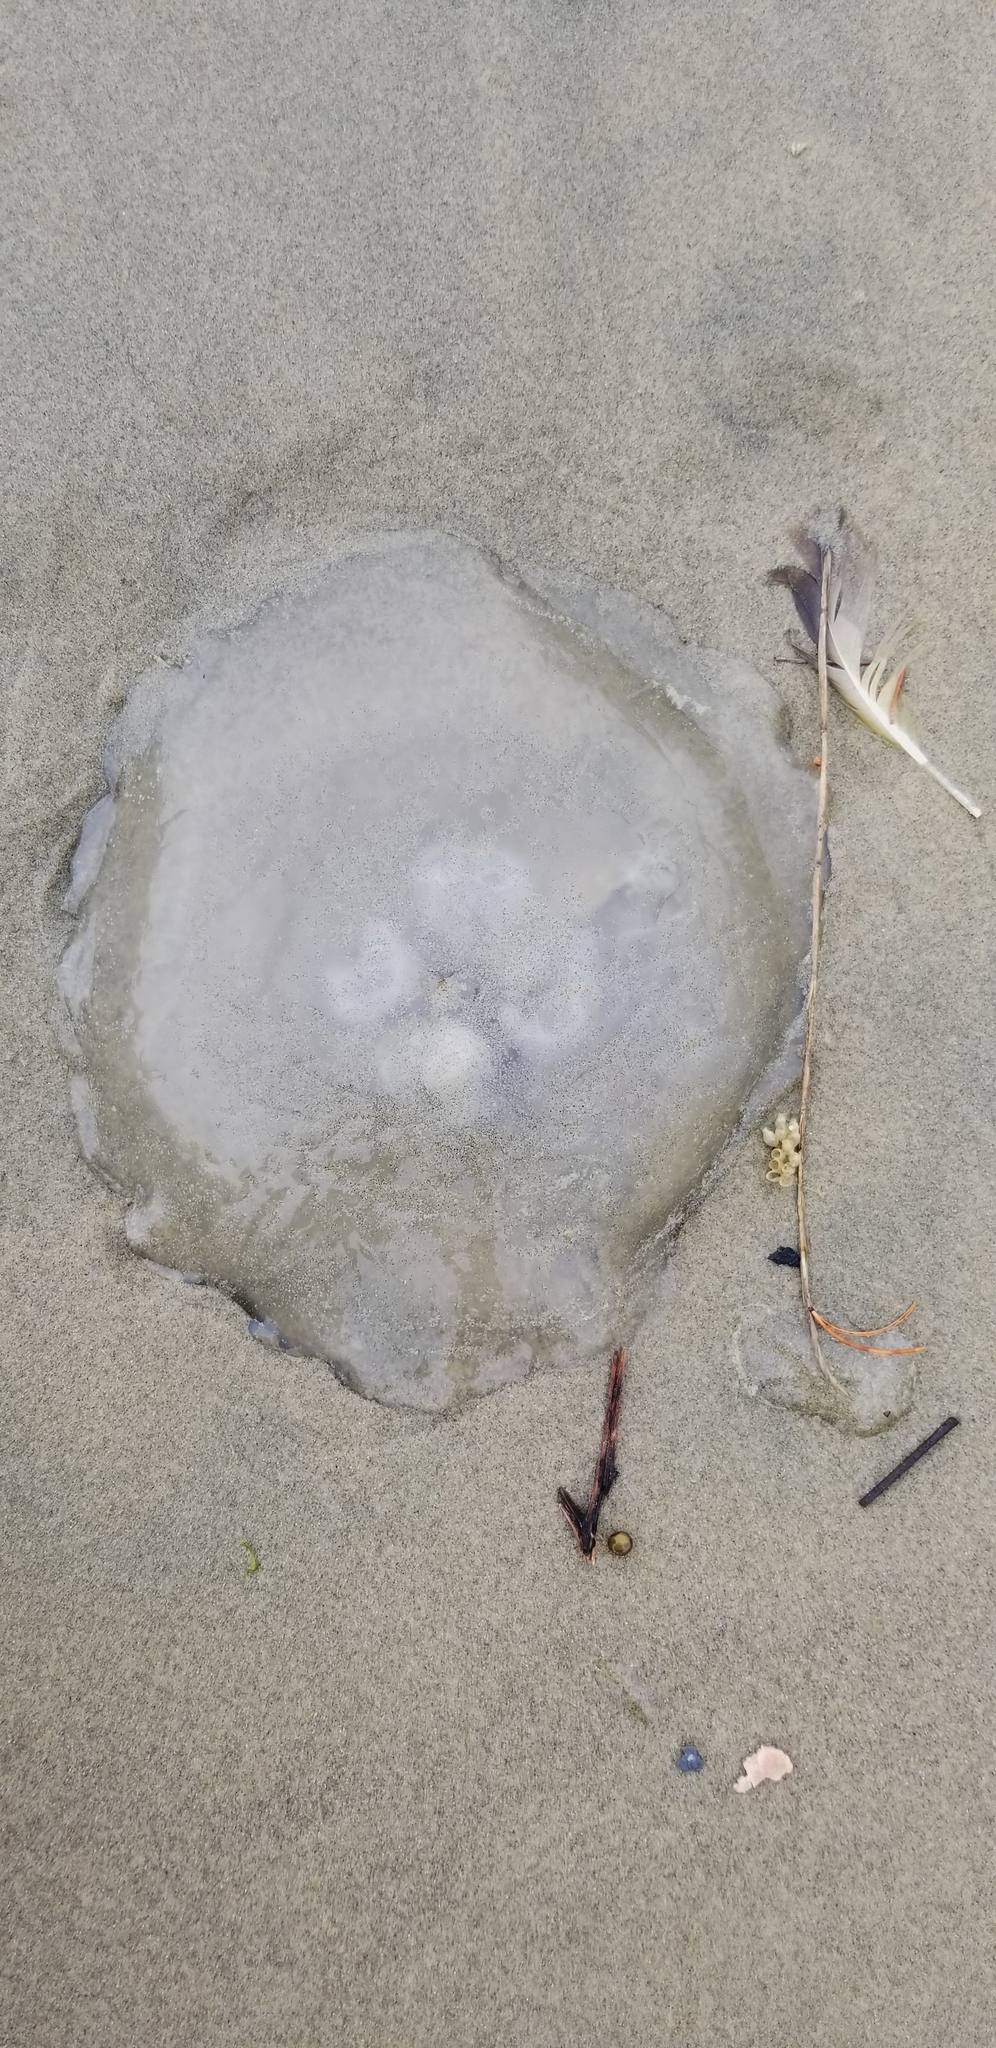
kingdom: Animalia
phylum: Cnidaria
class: Scyphozoa
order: Semaeostomeae
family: Ulmaridae
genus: Aurelia
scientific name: Aurelia labiata
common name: Pacific moon jelly
